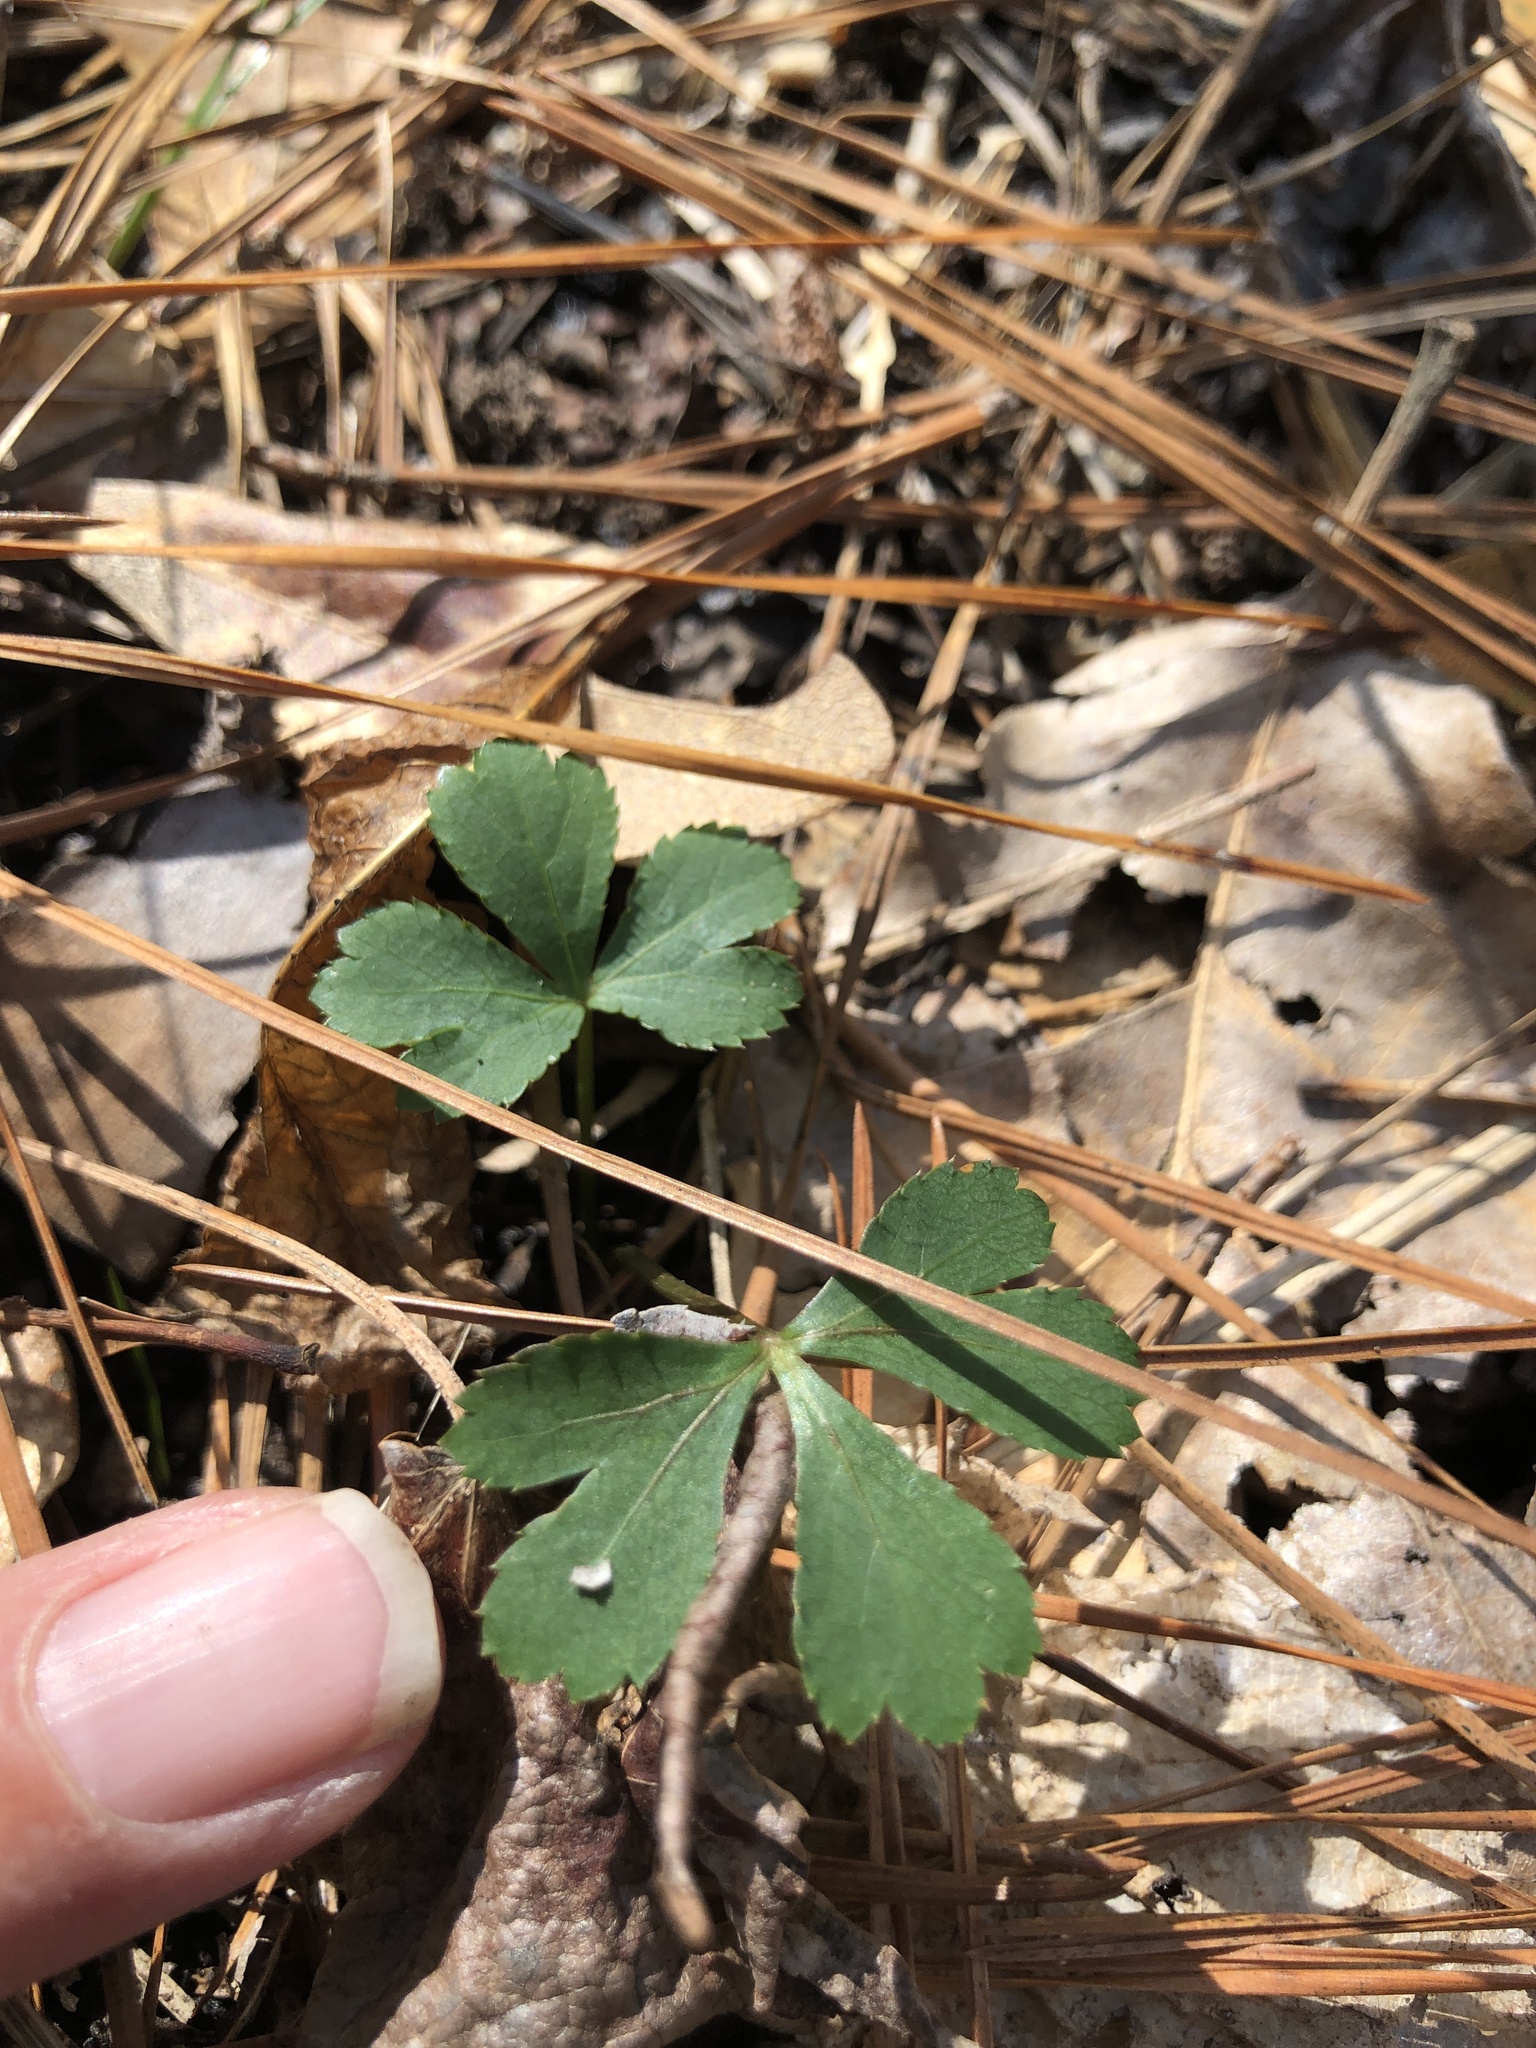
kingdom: Plantae
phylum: Tracheophyta
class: Magnoliopsida
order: Apiales
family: Apiaceae
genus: Sanicula
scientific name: Sanicula canadensis
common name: Canada sanicle
